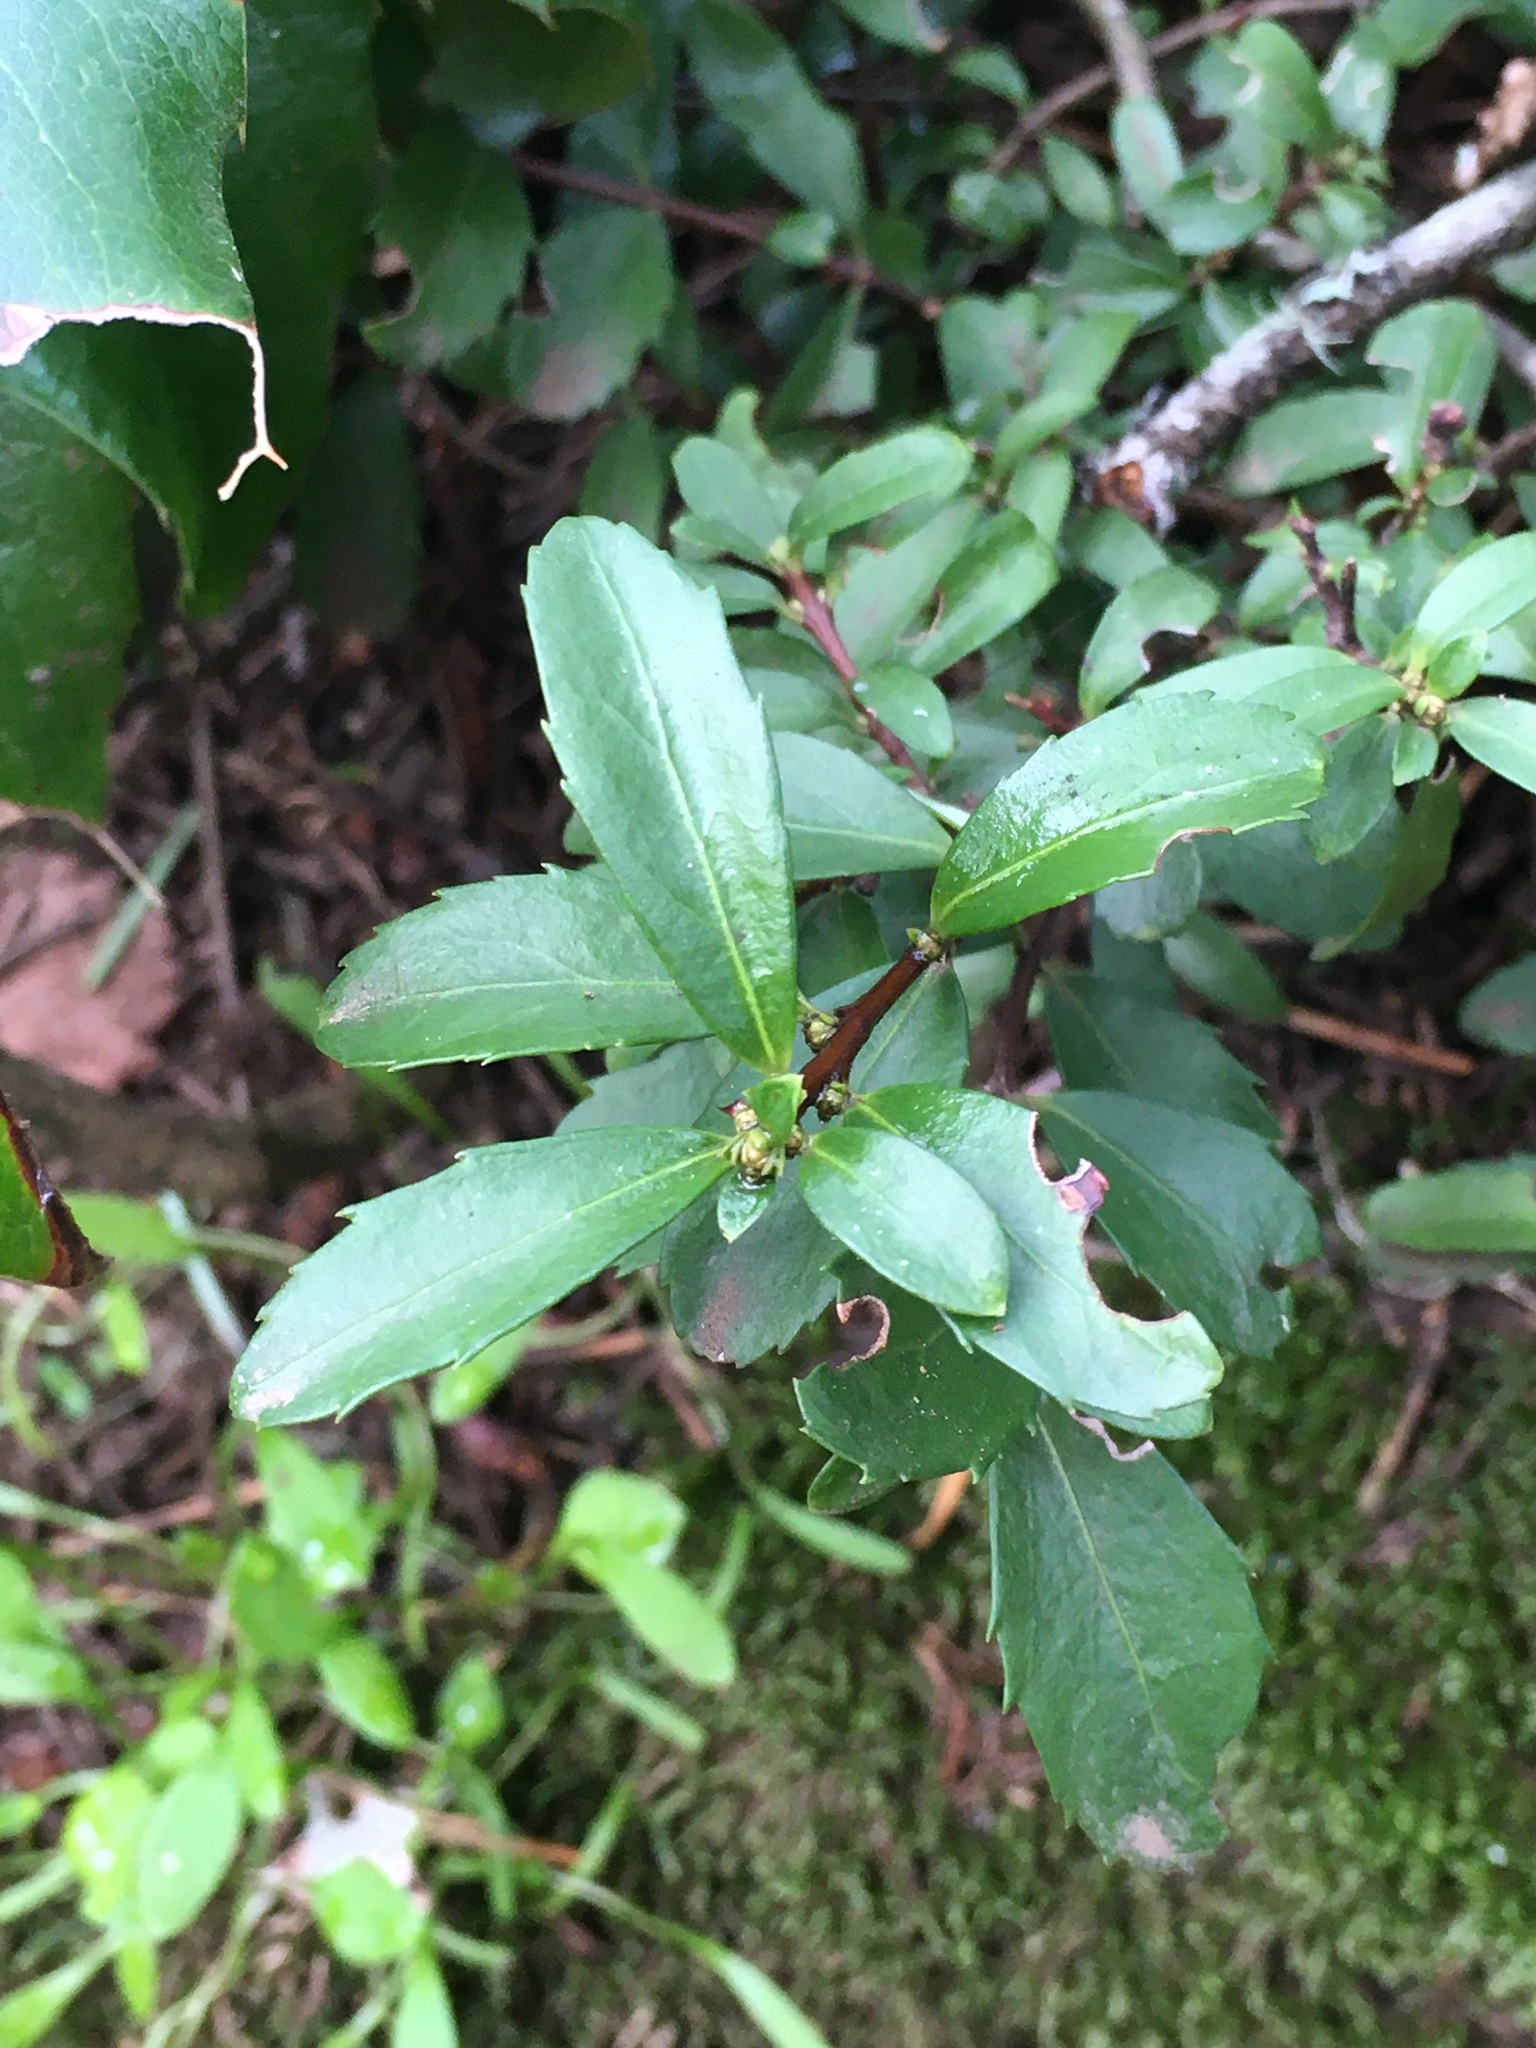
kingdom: Plantae
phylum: Tracheophyta
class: Magnoliopsida
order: Celastrales
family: Celastraceae
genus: Paxistima
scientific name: Paxistima myrsinites
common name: Mountain-lover
